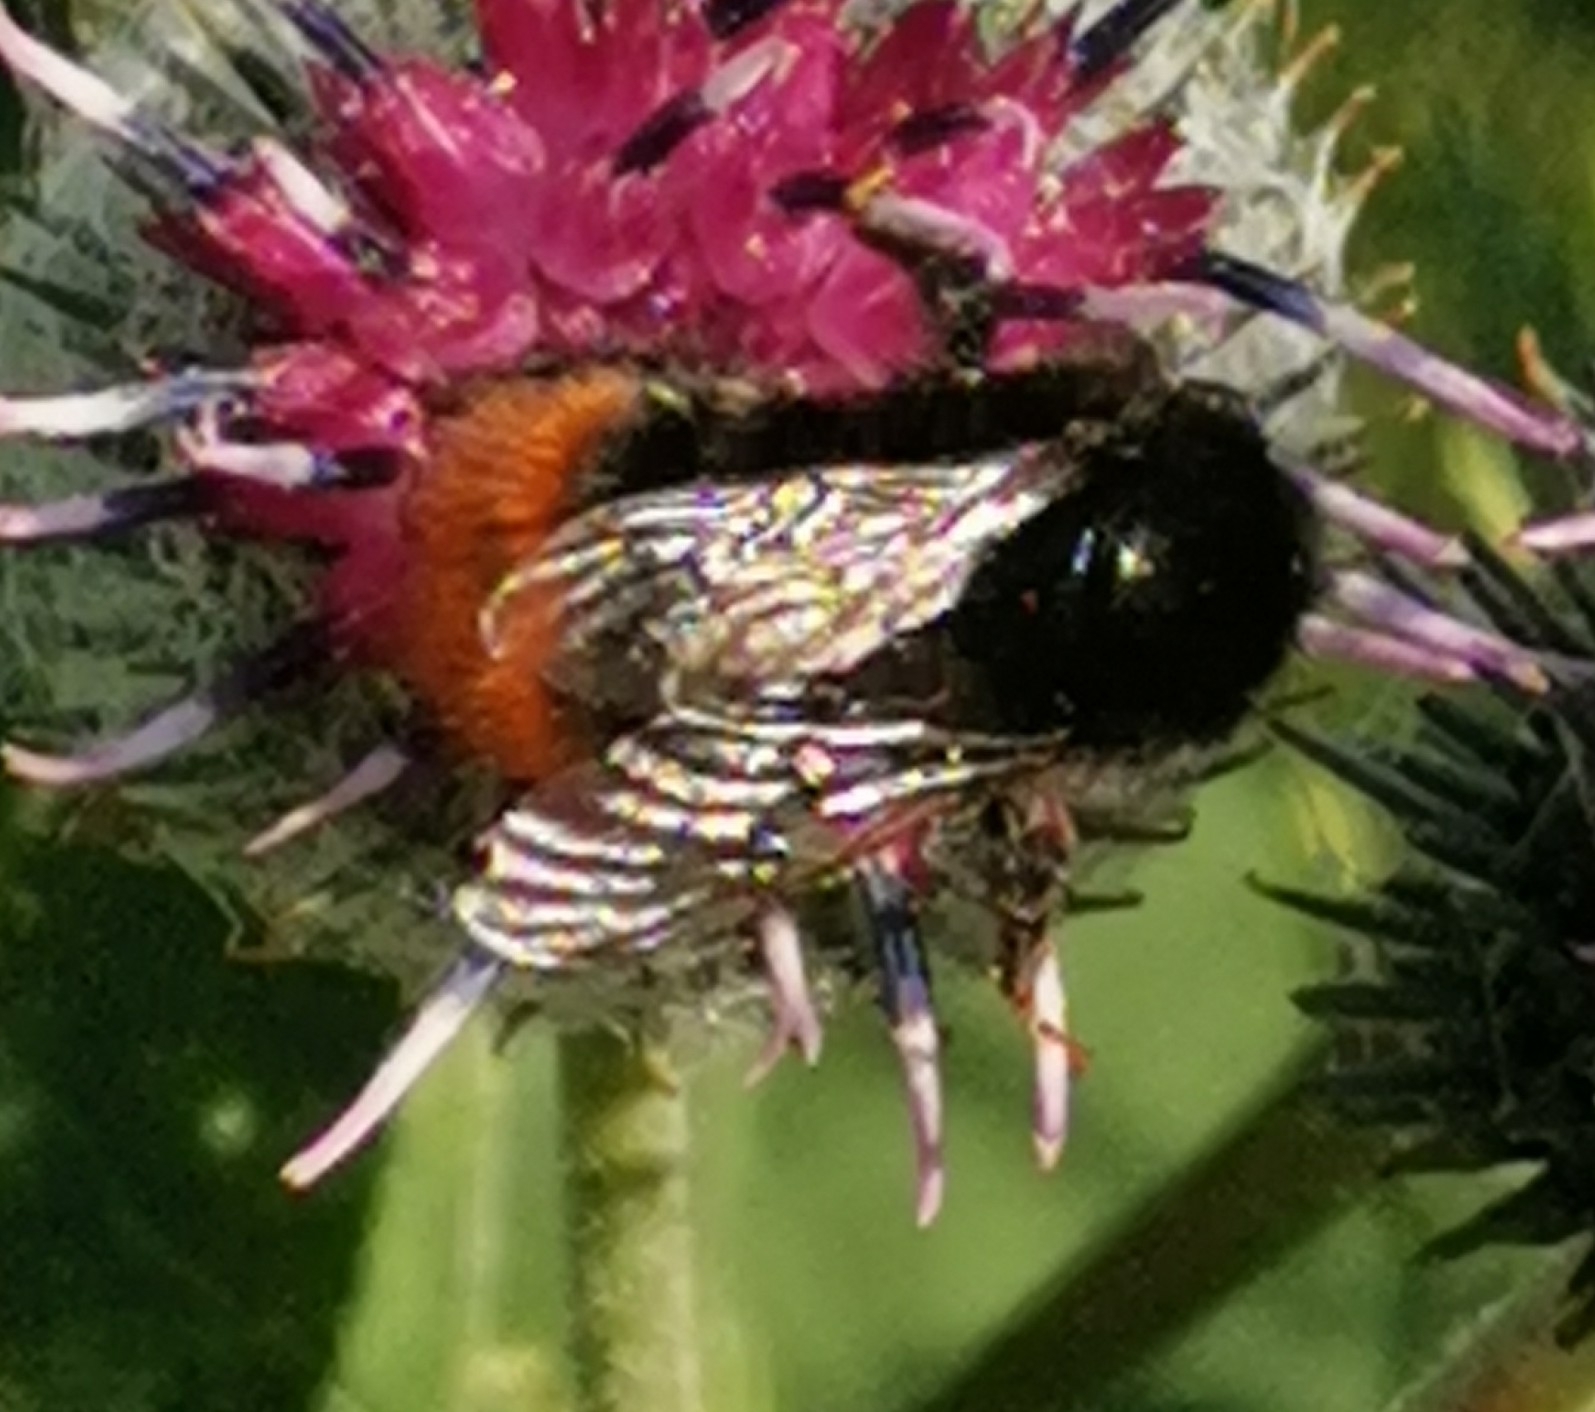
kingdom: Animalia
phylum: Arthropoda
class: Insecta
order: Hymenoptera
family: Apidae
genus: Bombus
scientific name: Bombus lapidarius
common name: Large red-tailed humble-bee
